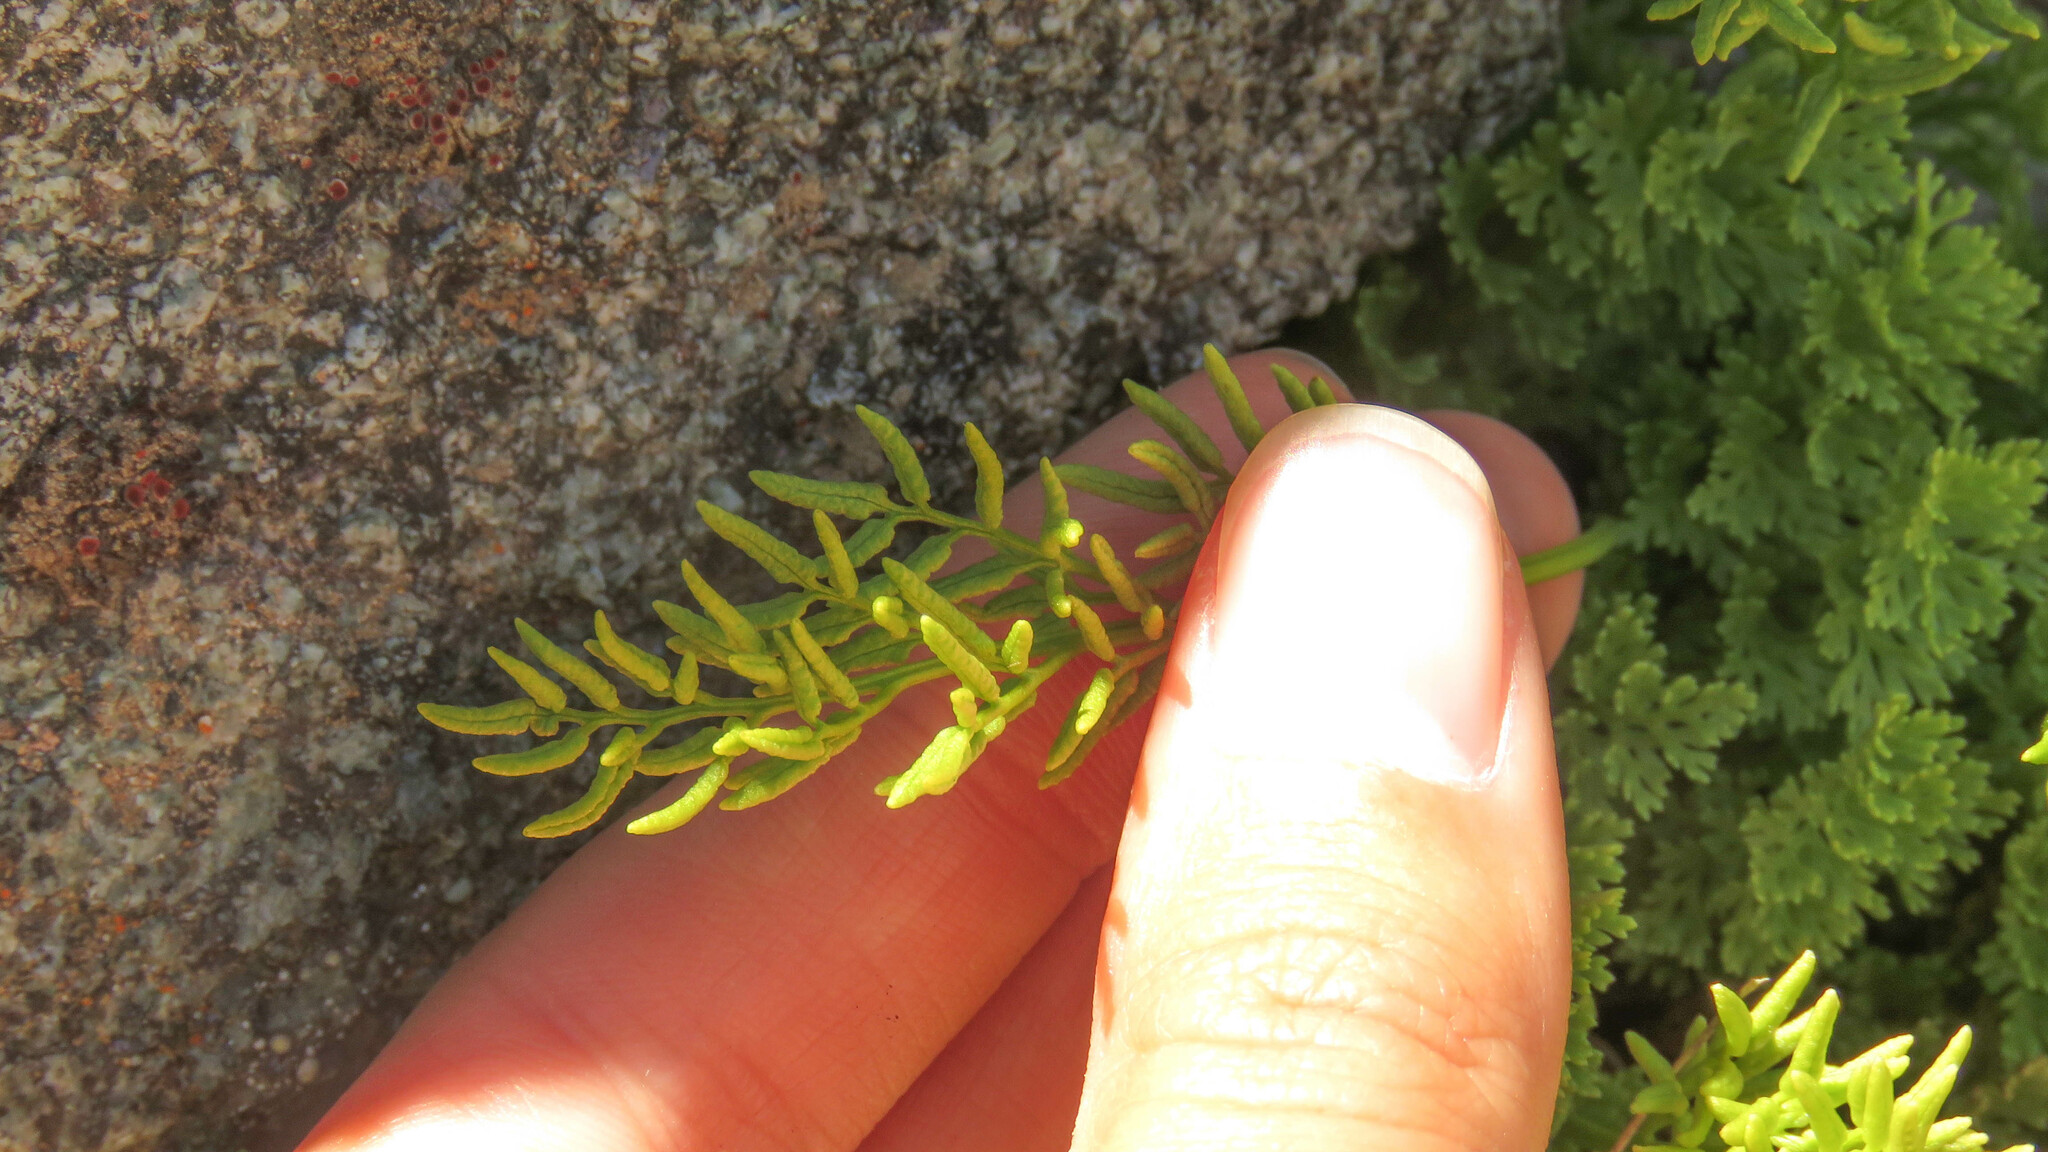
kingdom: Plantae
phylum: Tracheophyta
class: Polypodiopsida
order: Polypodiales
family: Pteridaceae
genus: Cryptogramma
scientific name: Cryptogramma fumariifolia
